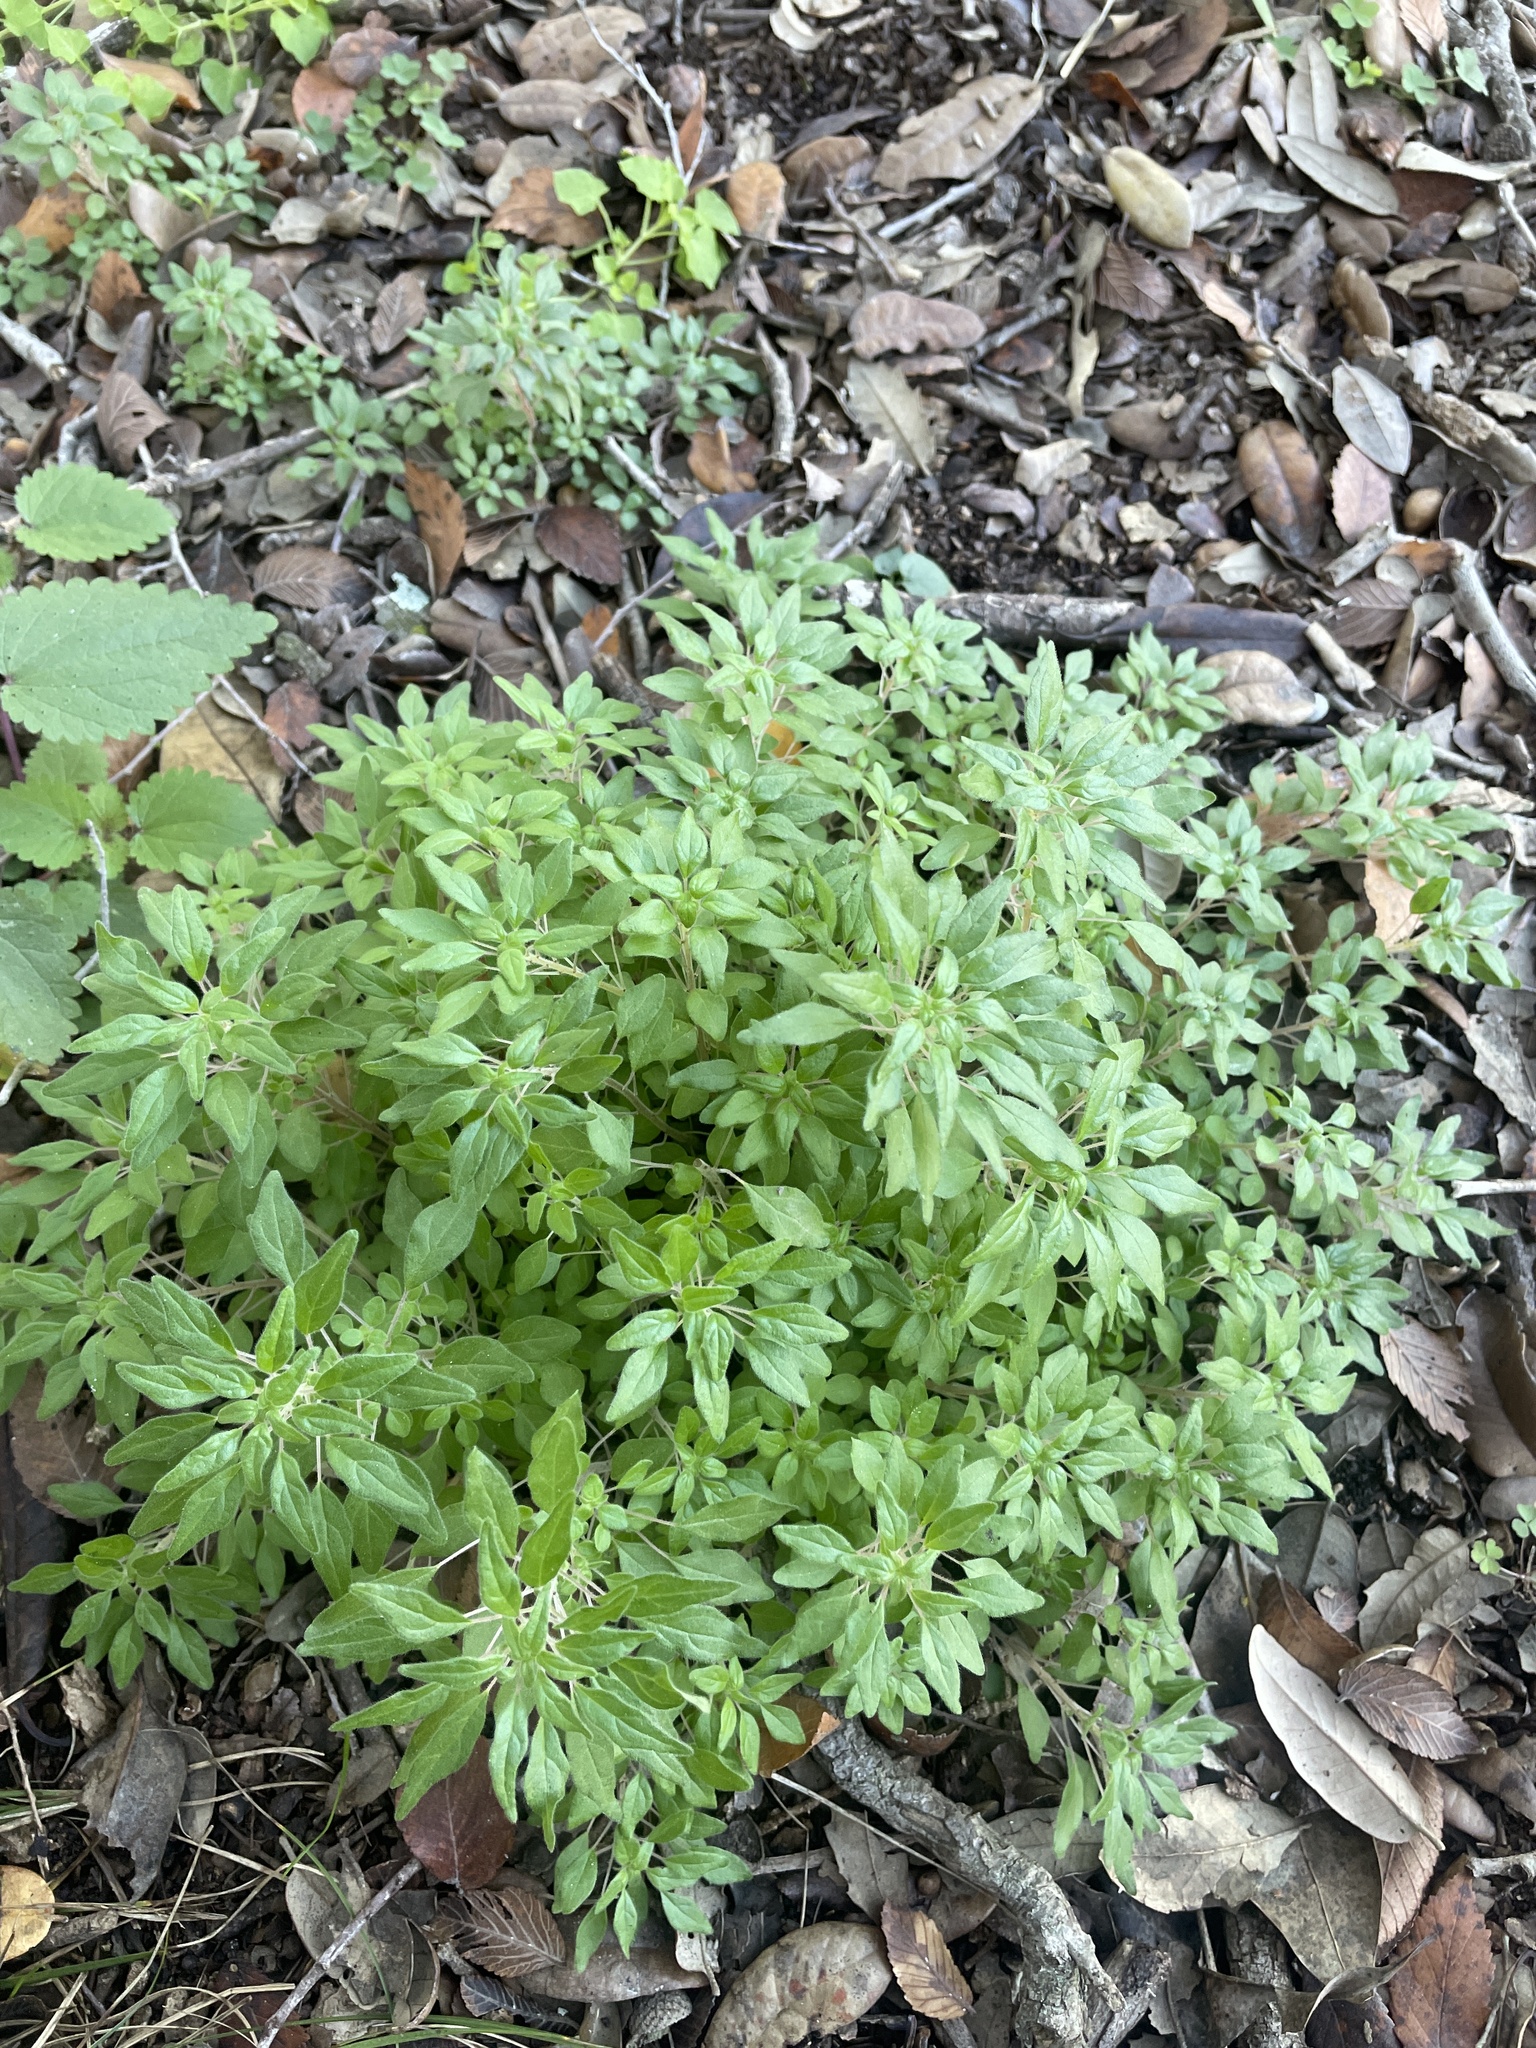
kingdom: Plantae
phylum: Tracheophyta
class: Magnoliopsida
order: Rosales
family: Urticaceae
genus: Parietaria
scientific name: Parietaria pensylvanica
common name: Pennsylvania pellitory
